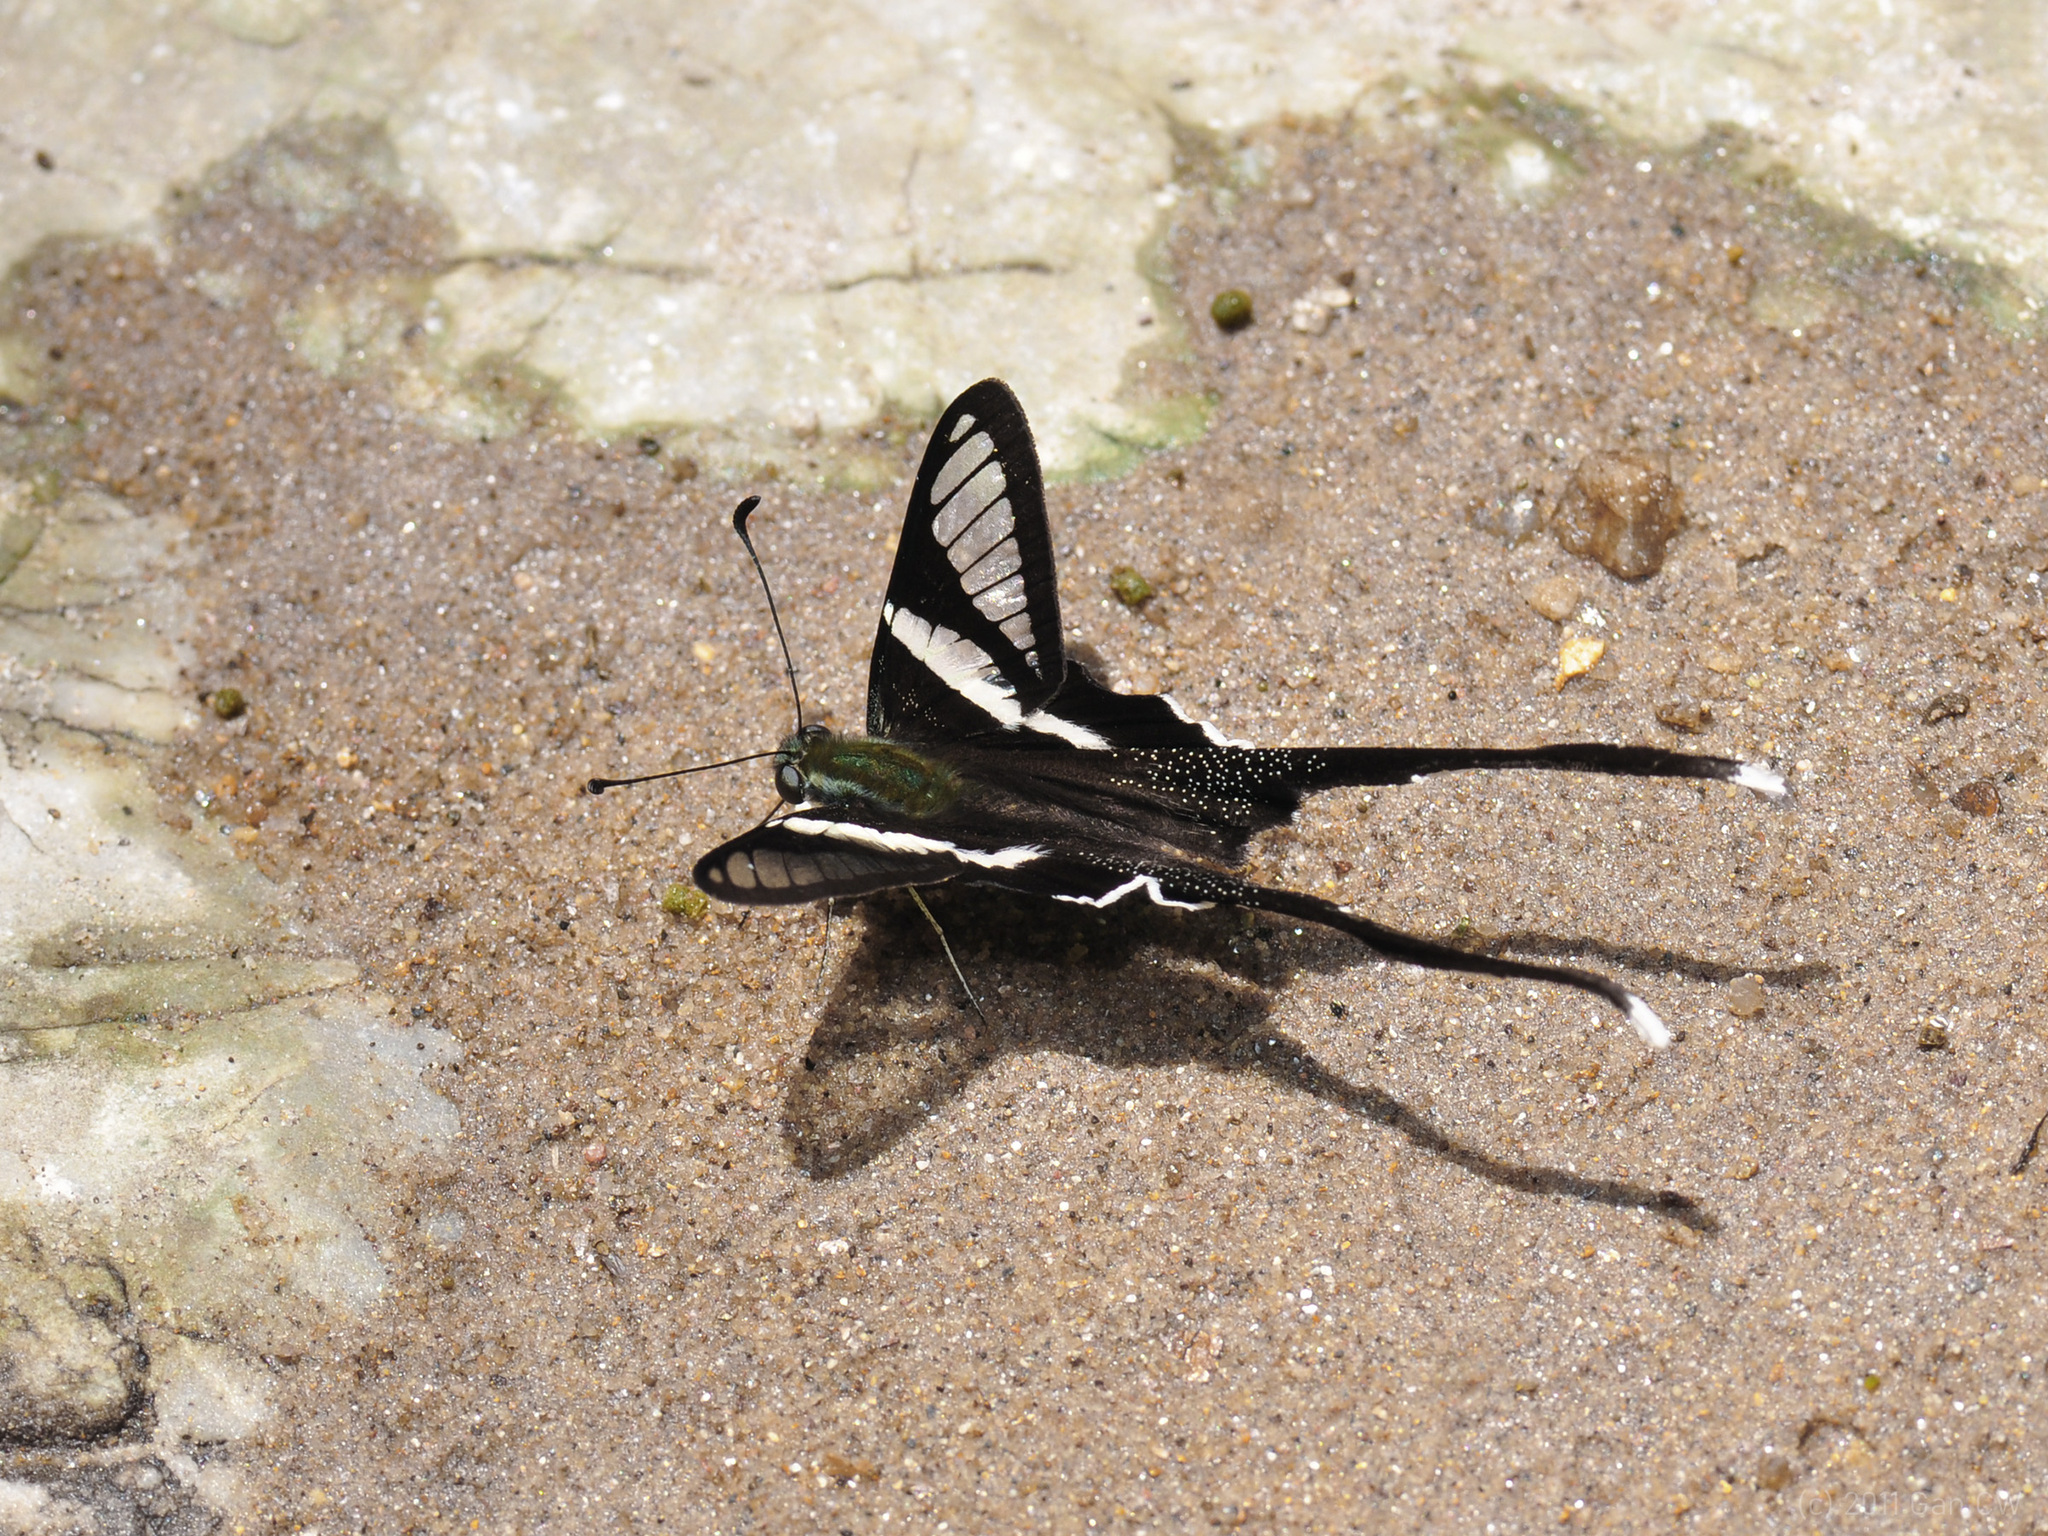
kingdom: Animalia
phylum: Arthropoda
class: Insecta
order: Lepidoptera
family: Papilionidae
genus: Lamproptera
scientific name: Lamproptera curius
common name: White dragontail
